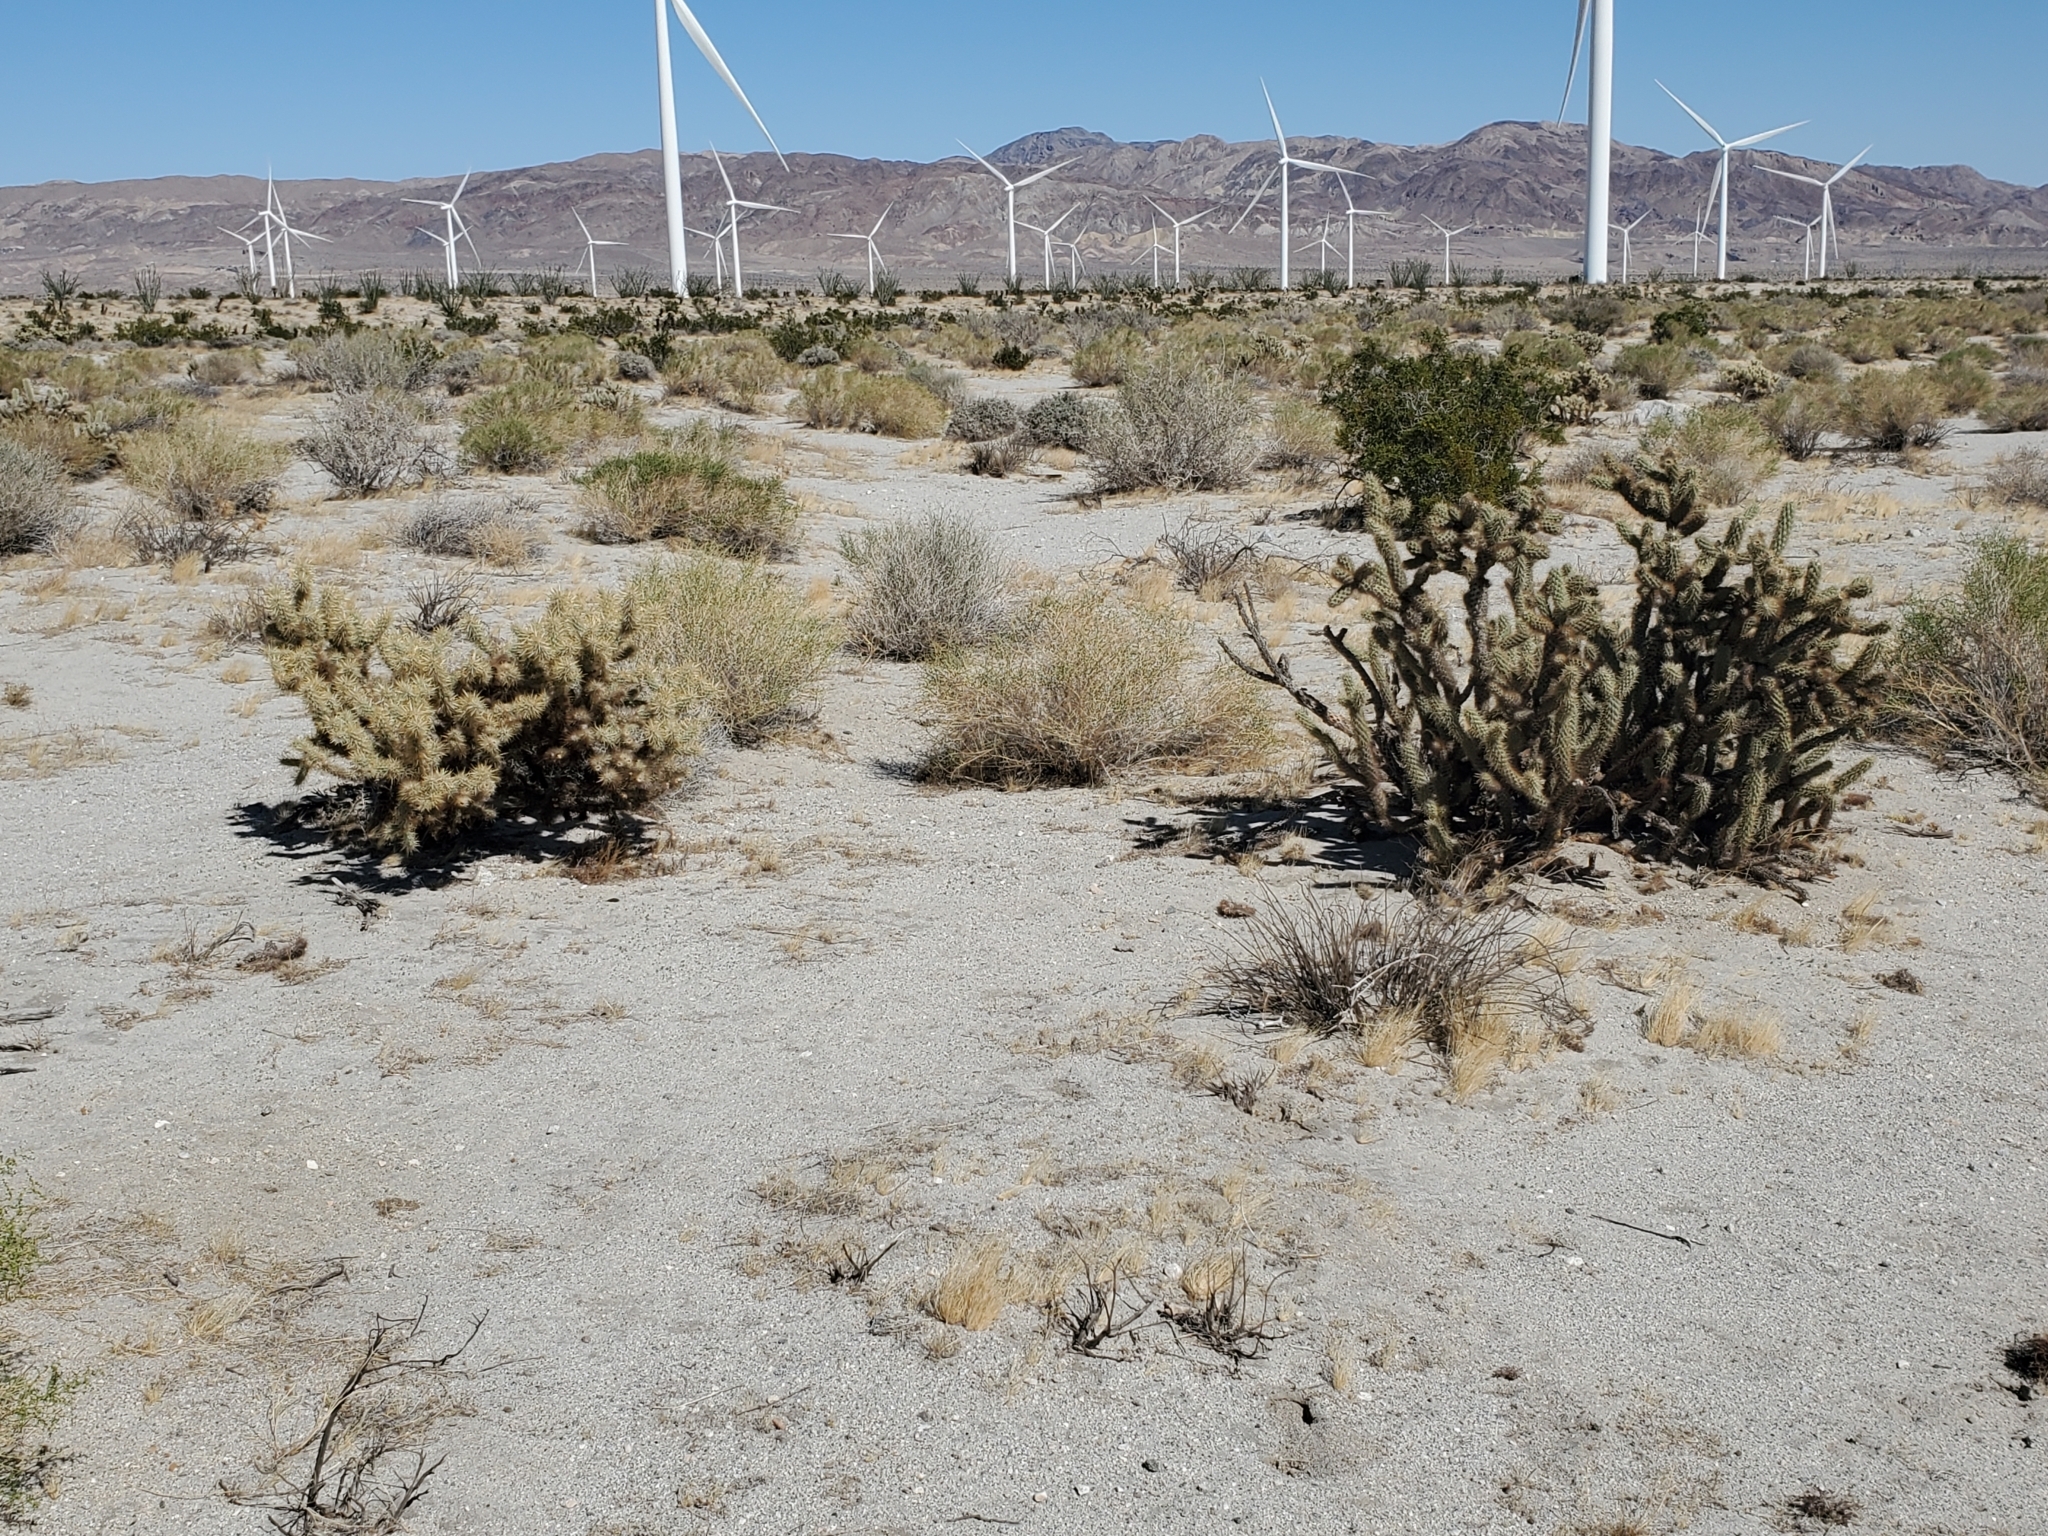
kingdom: Plantae
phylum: Tracheophyta
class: Magnoliopsida
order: Caryophyllales
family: Cactaceae
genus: Cylindropuntia
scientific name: Cylindropuntia echinocarpa
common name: Ground cholla
